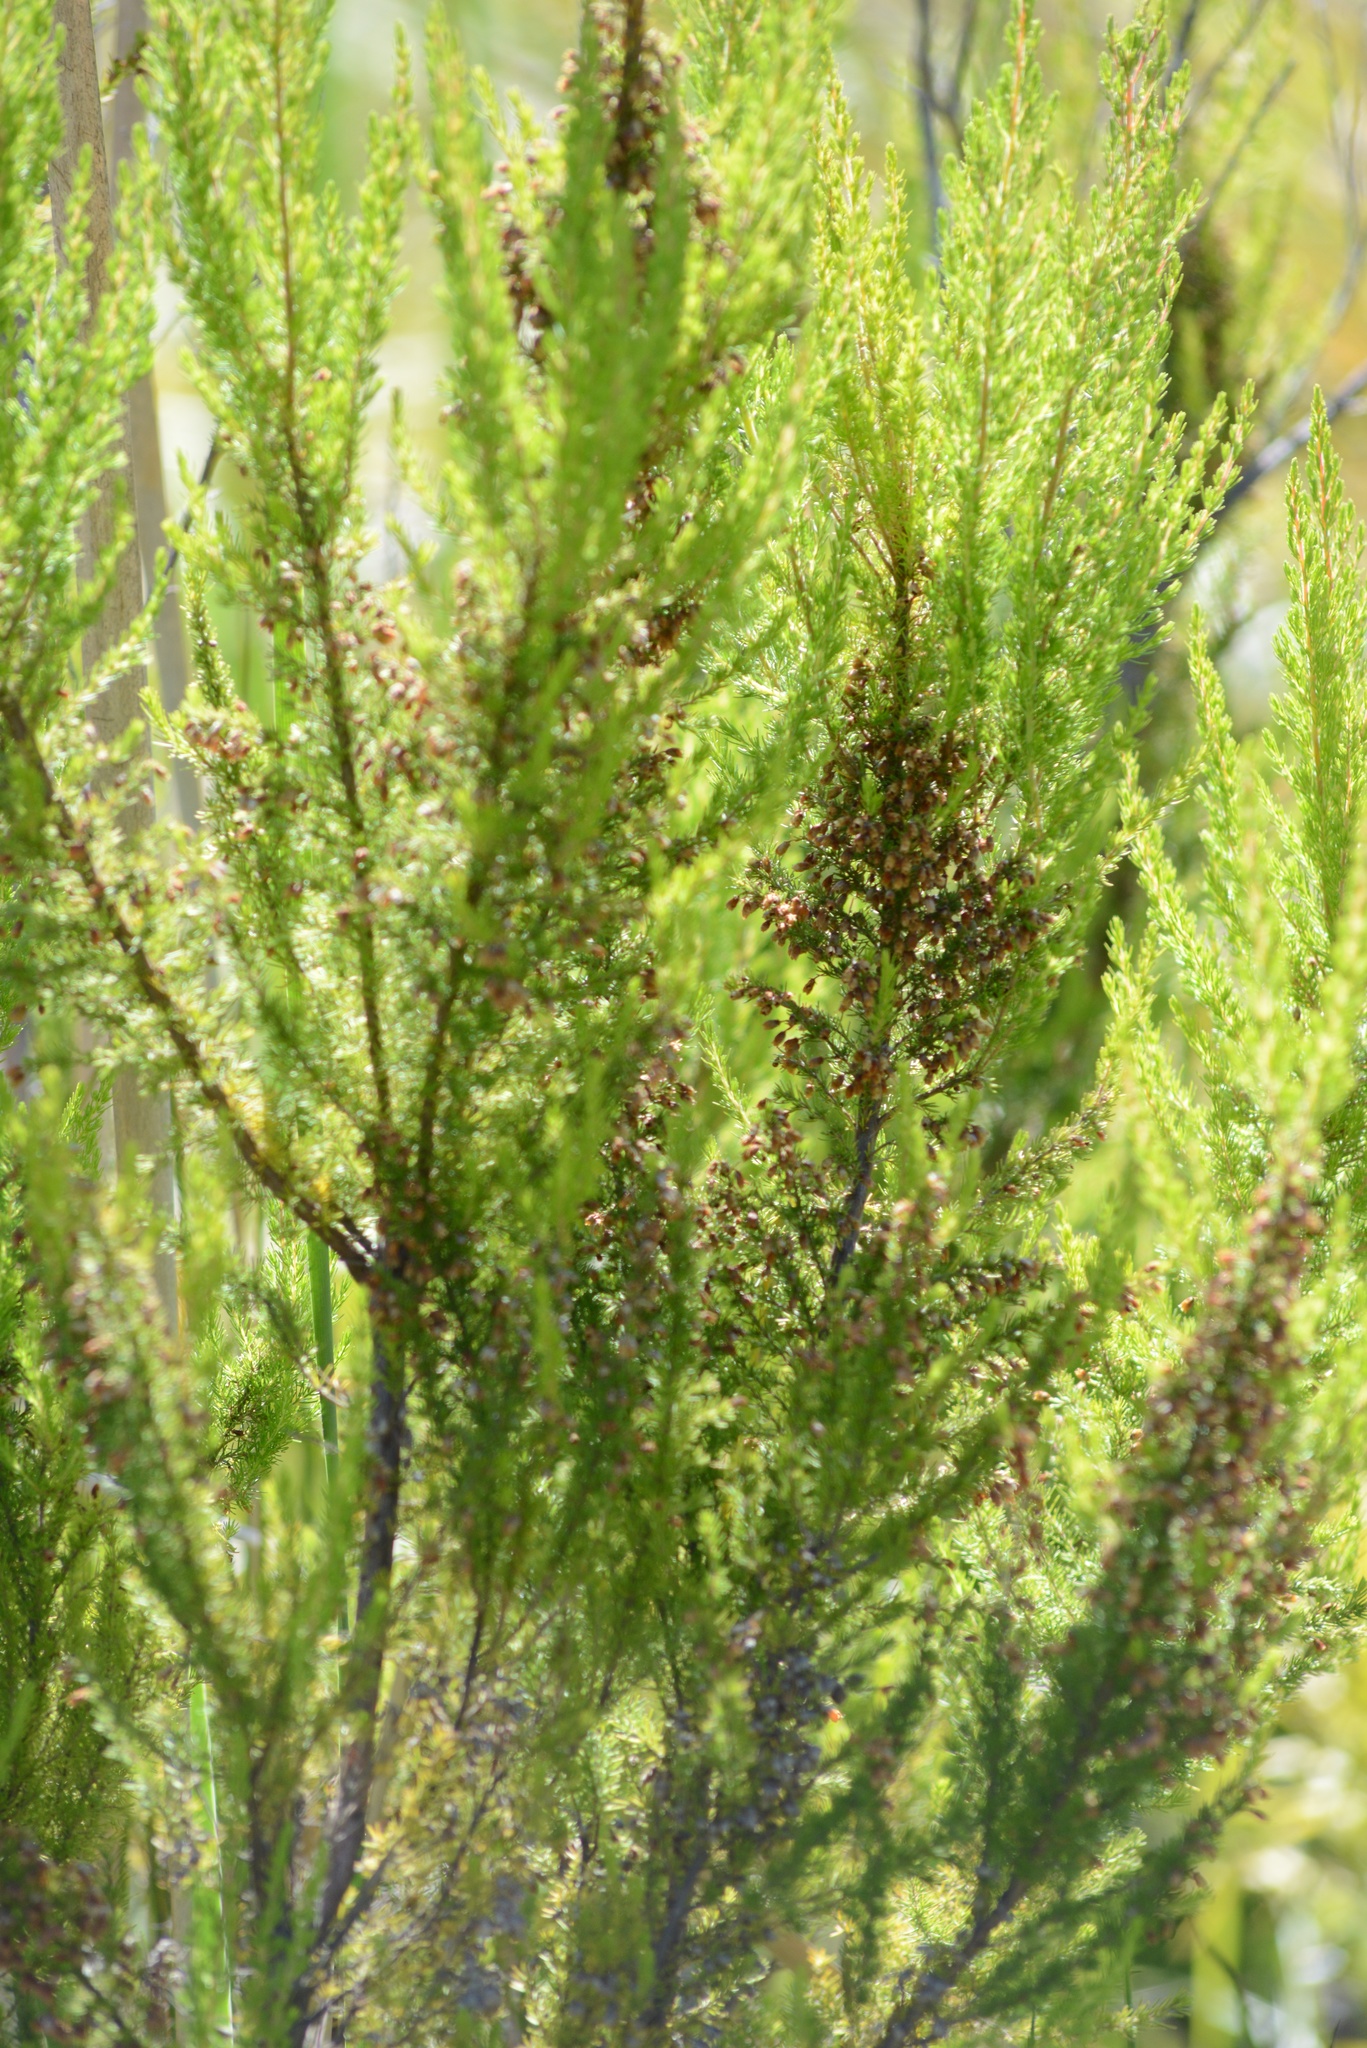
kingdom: Plantae
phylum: Tracheophyta
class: Magnoliopsida
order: Ericales
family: Ericaceae
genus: Erica
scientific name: Erica lusitanica
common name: Spanish heath
